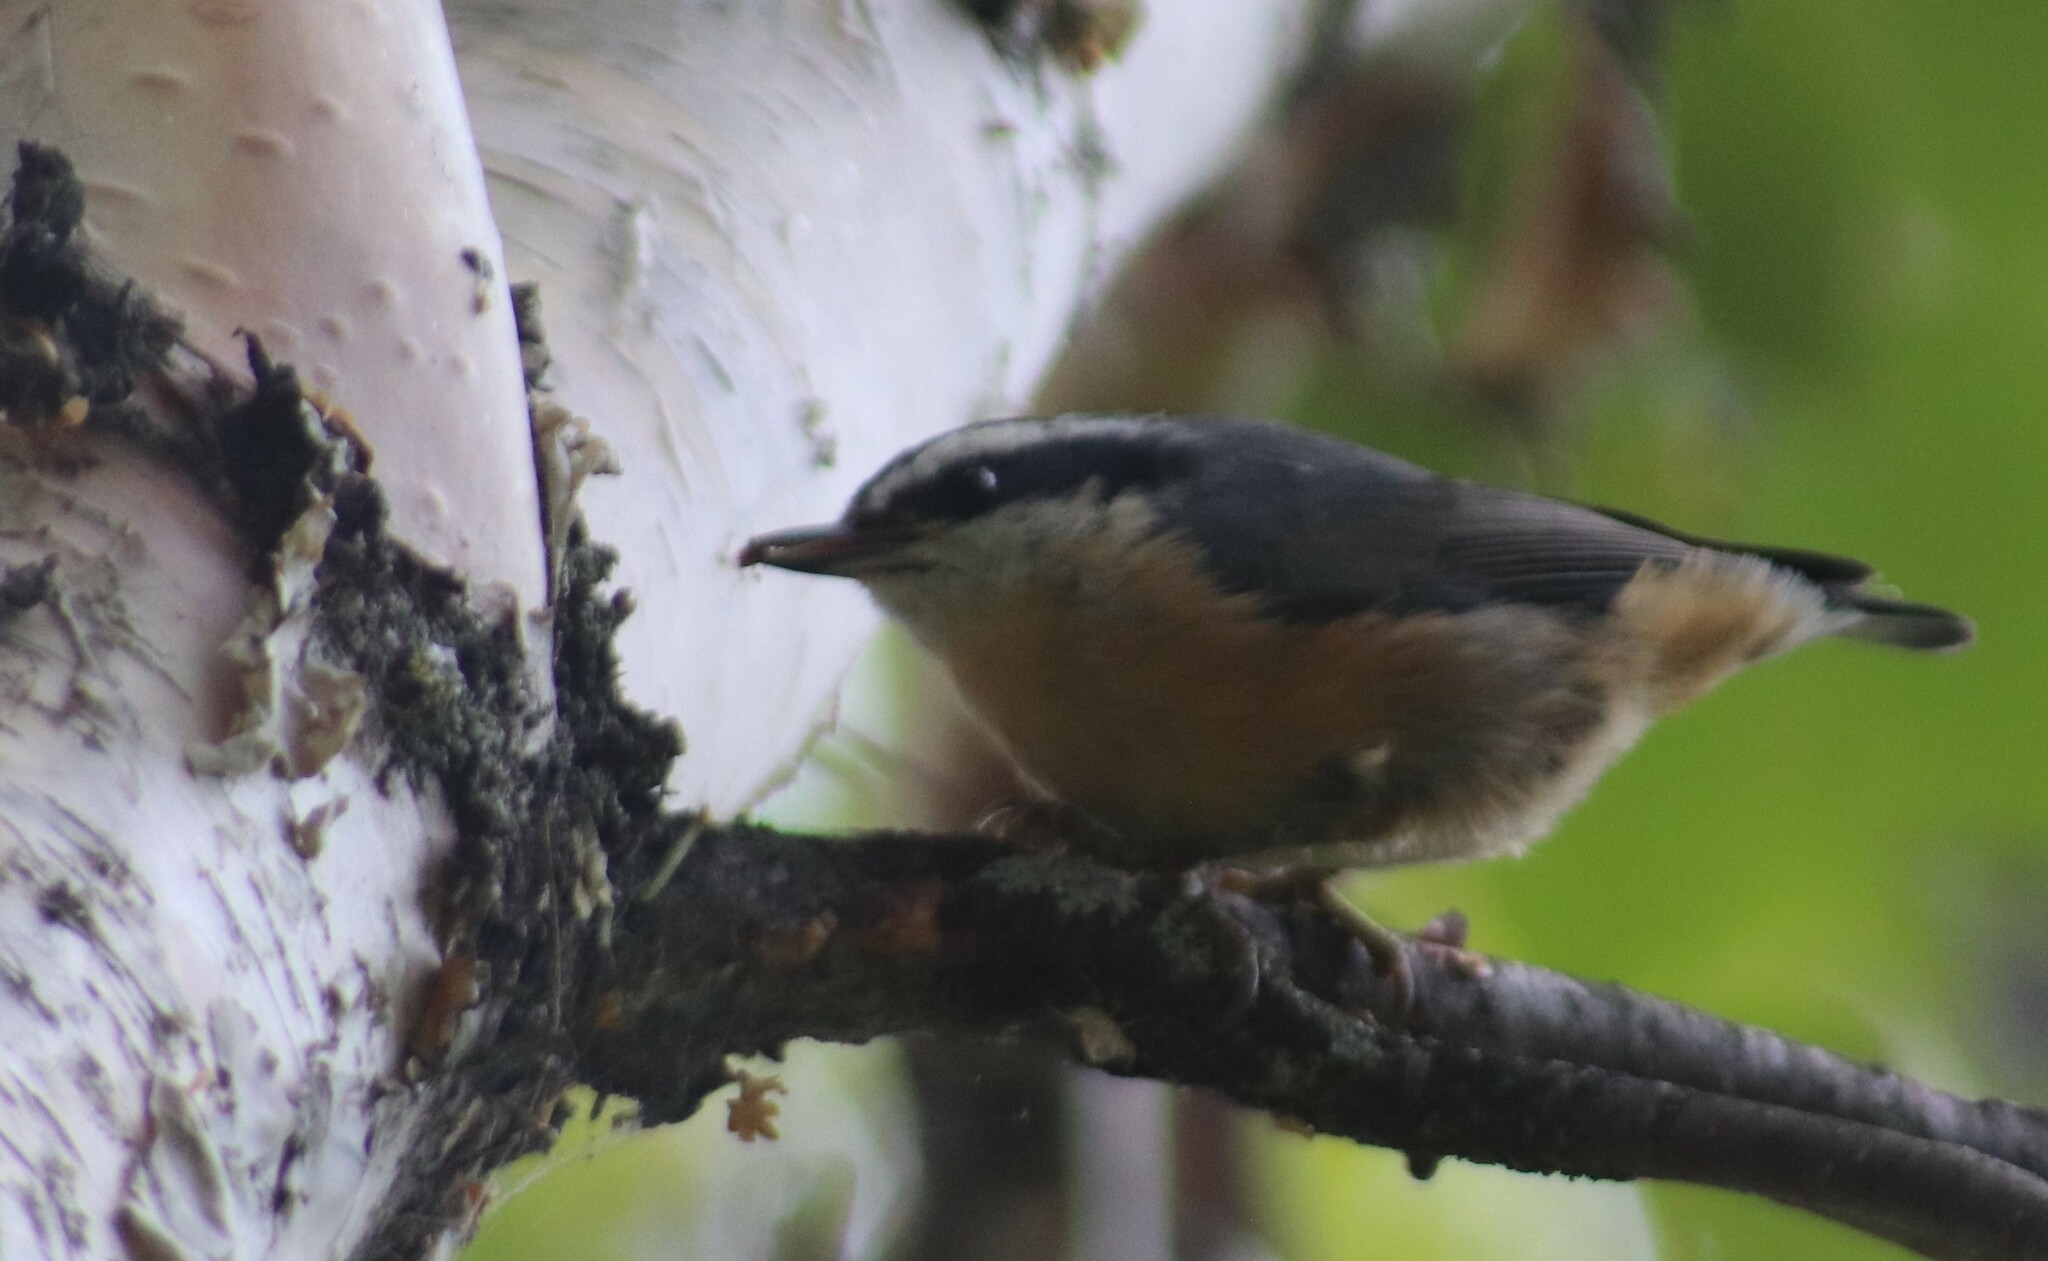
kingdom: Animalia
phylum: Chordata
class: Aves
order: Passeriformes
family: Sittidae
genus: Sitta
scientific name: Sitta canadensis
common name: Red-breasted nuthatch
